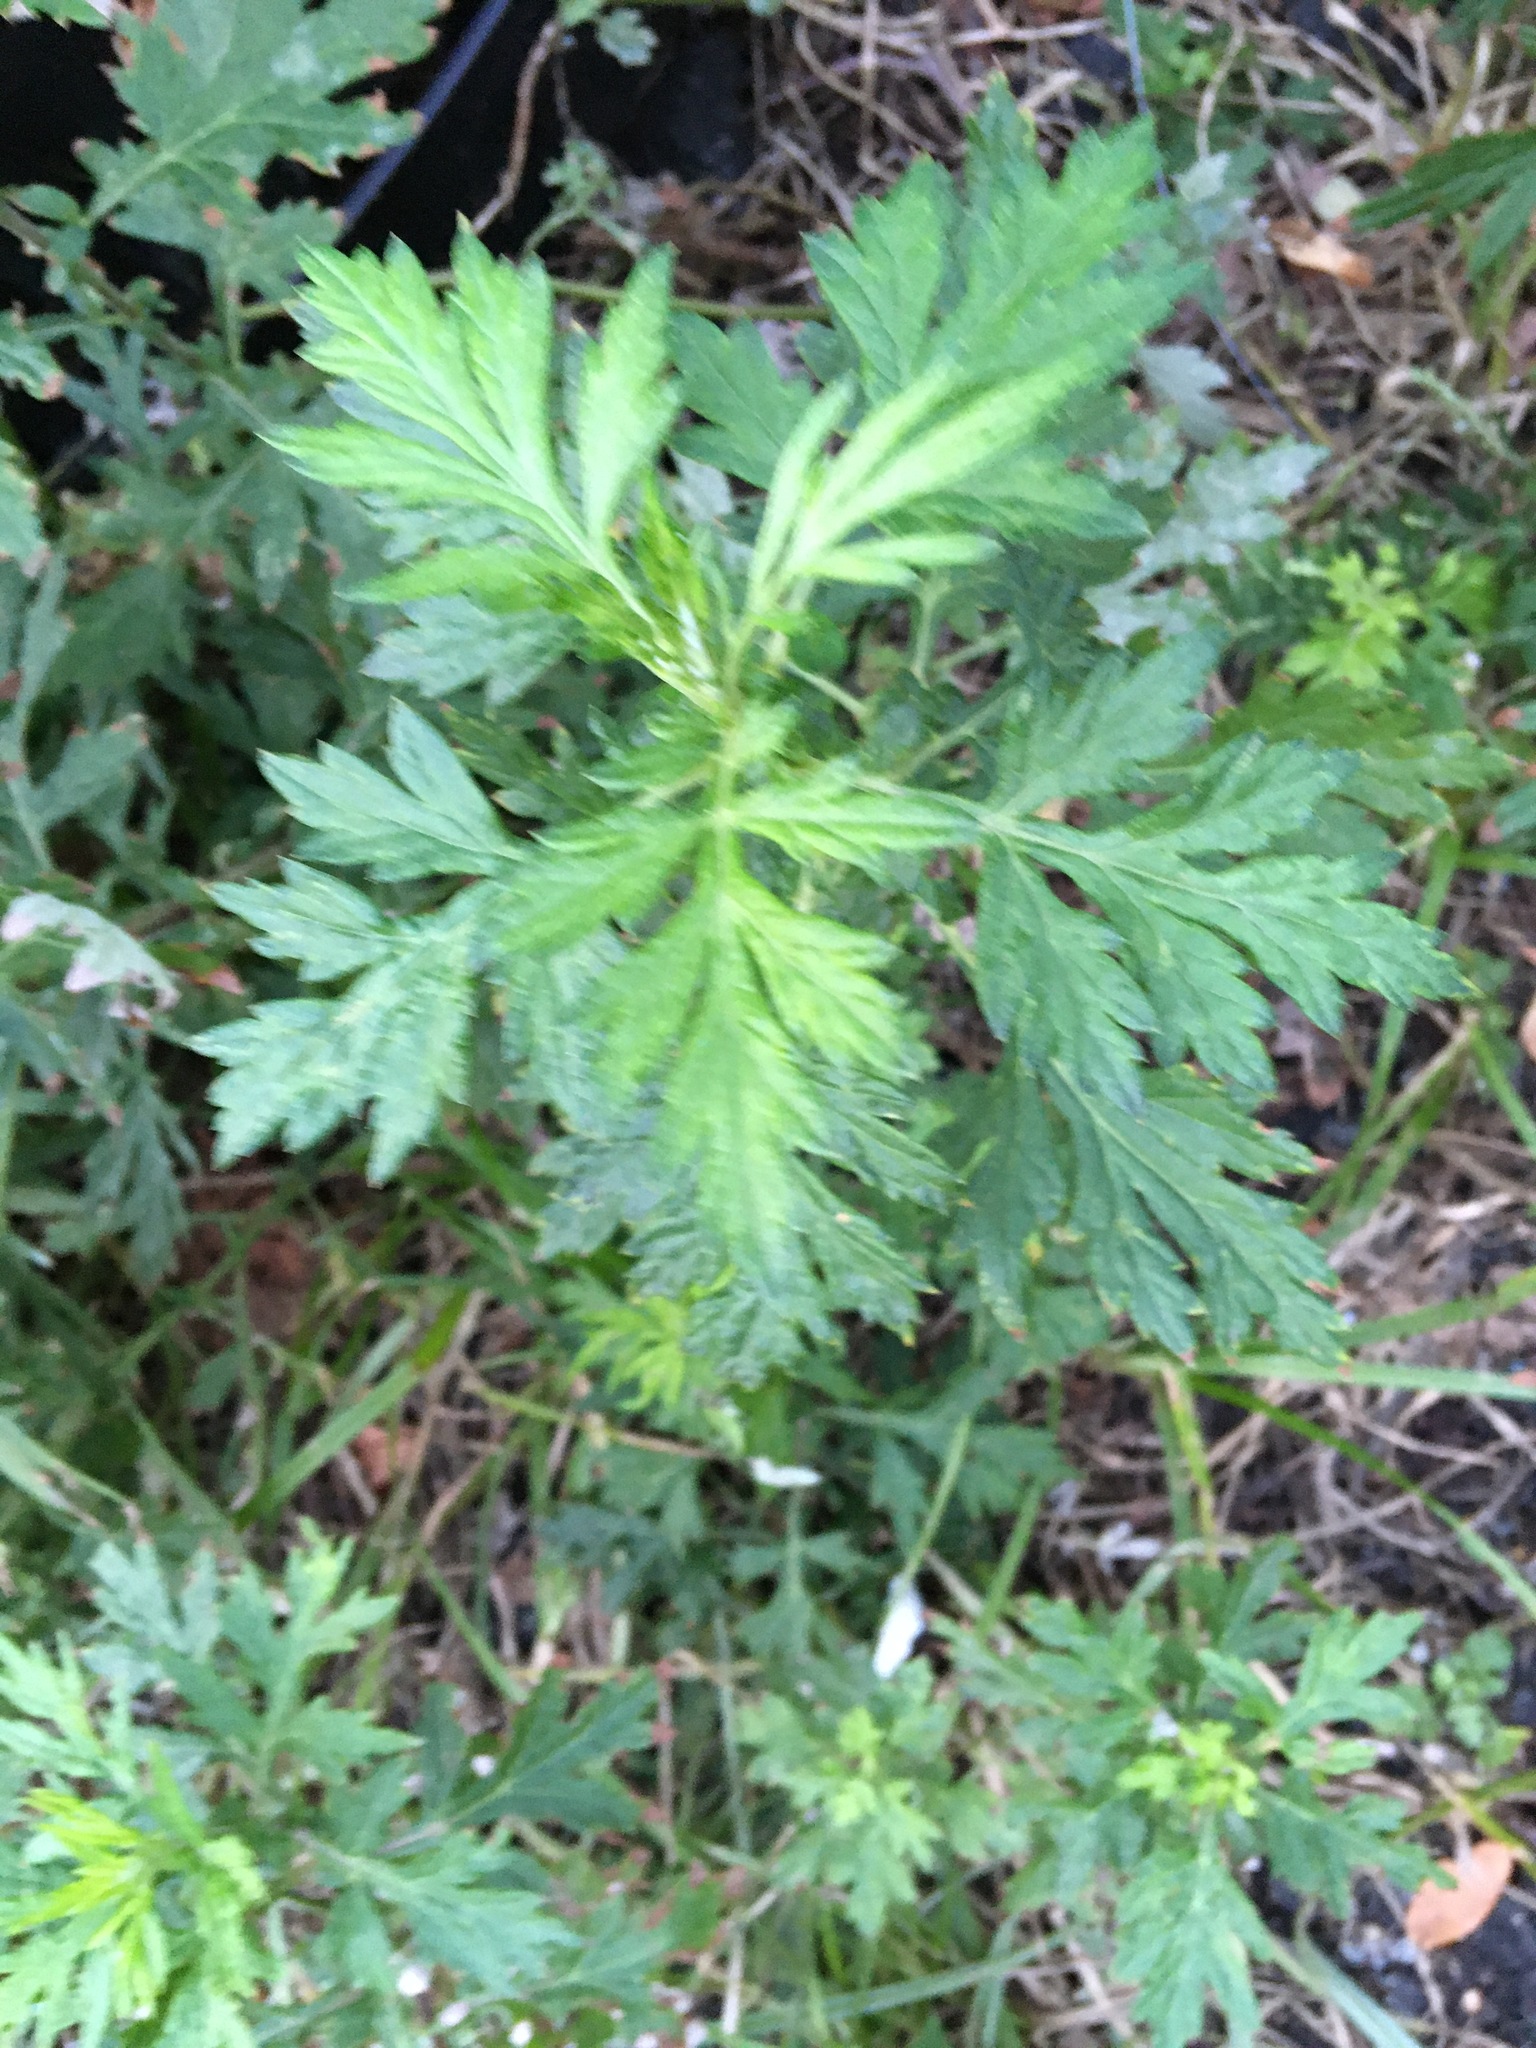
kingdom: Plantae
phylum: Tracheophyta
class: Magnoliopsida
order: Asterales
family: Asteraceae
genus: Artemisia
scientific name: Artemisia vulgaris
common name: Mugwort
